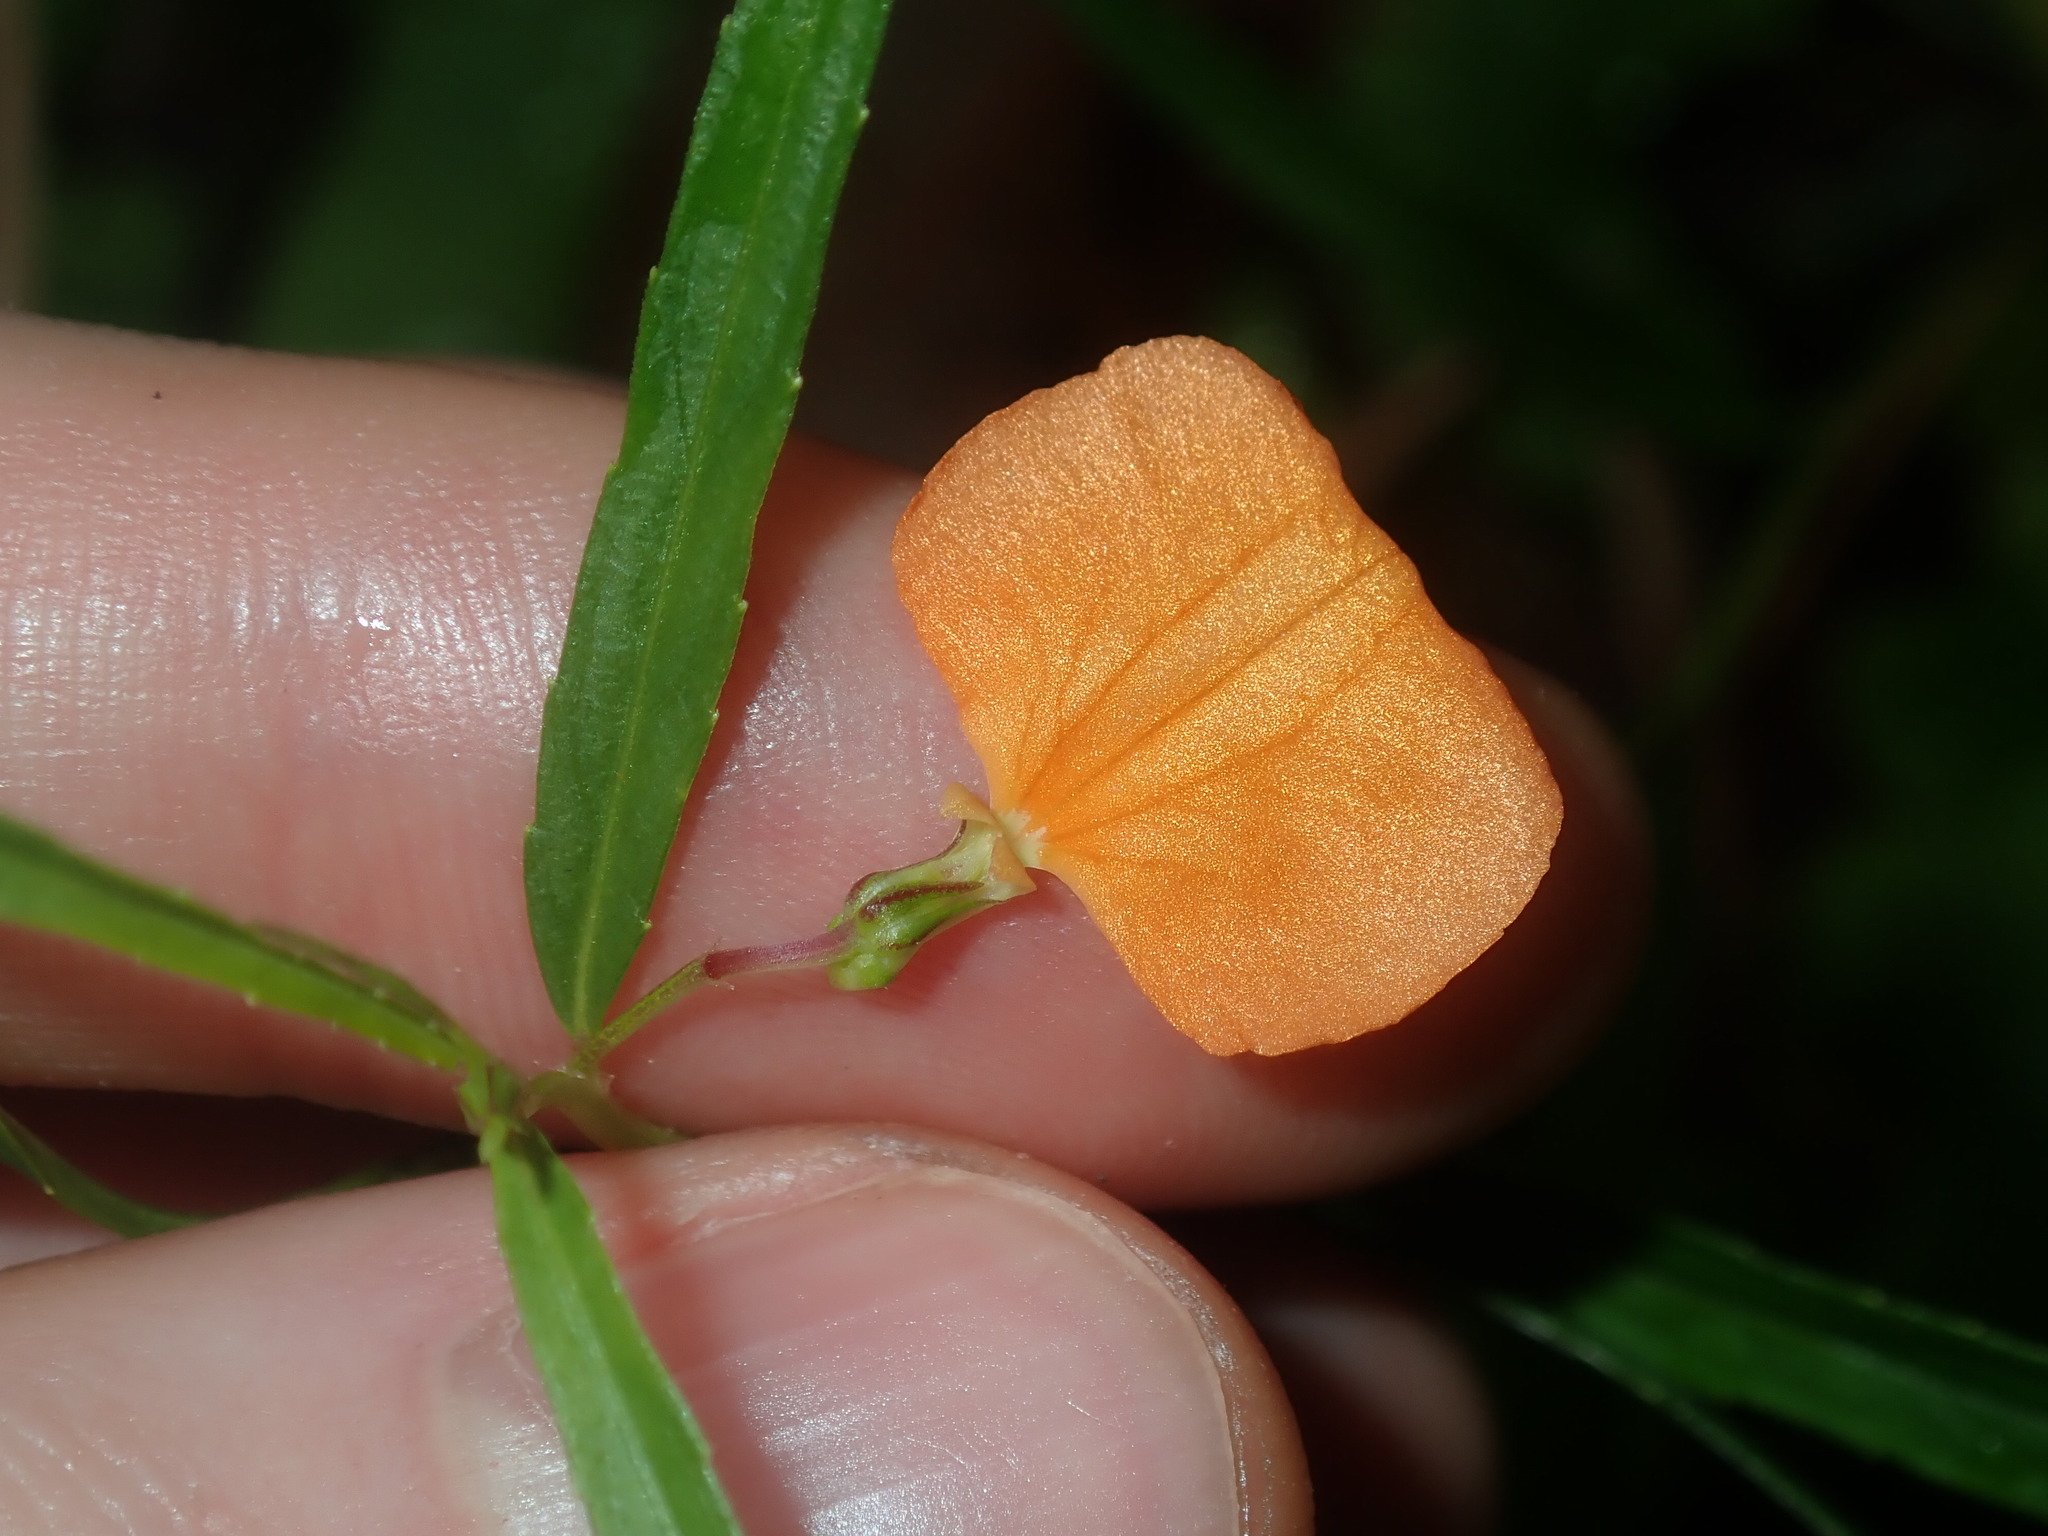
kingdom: Plantae
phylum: Tracheophyta
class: Magnoliopsida
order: Malpighiales
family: Violaceae
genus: Pigea
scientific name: Pigea stellarioides
